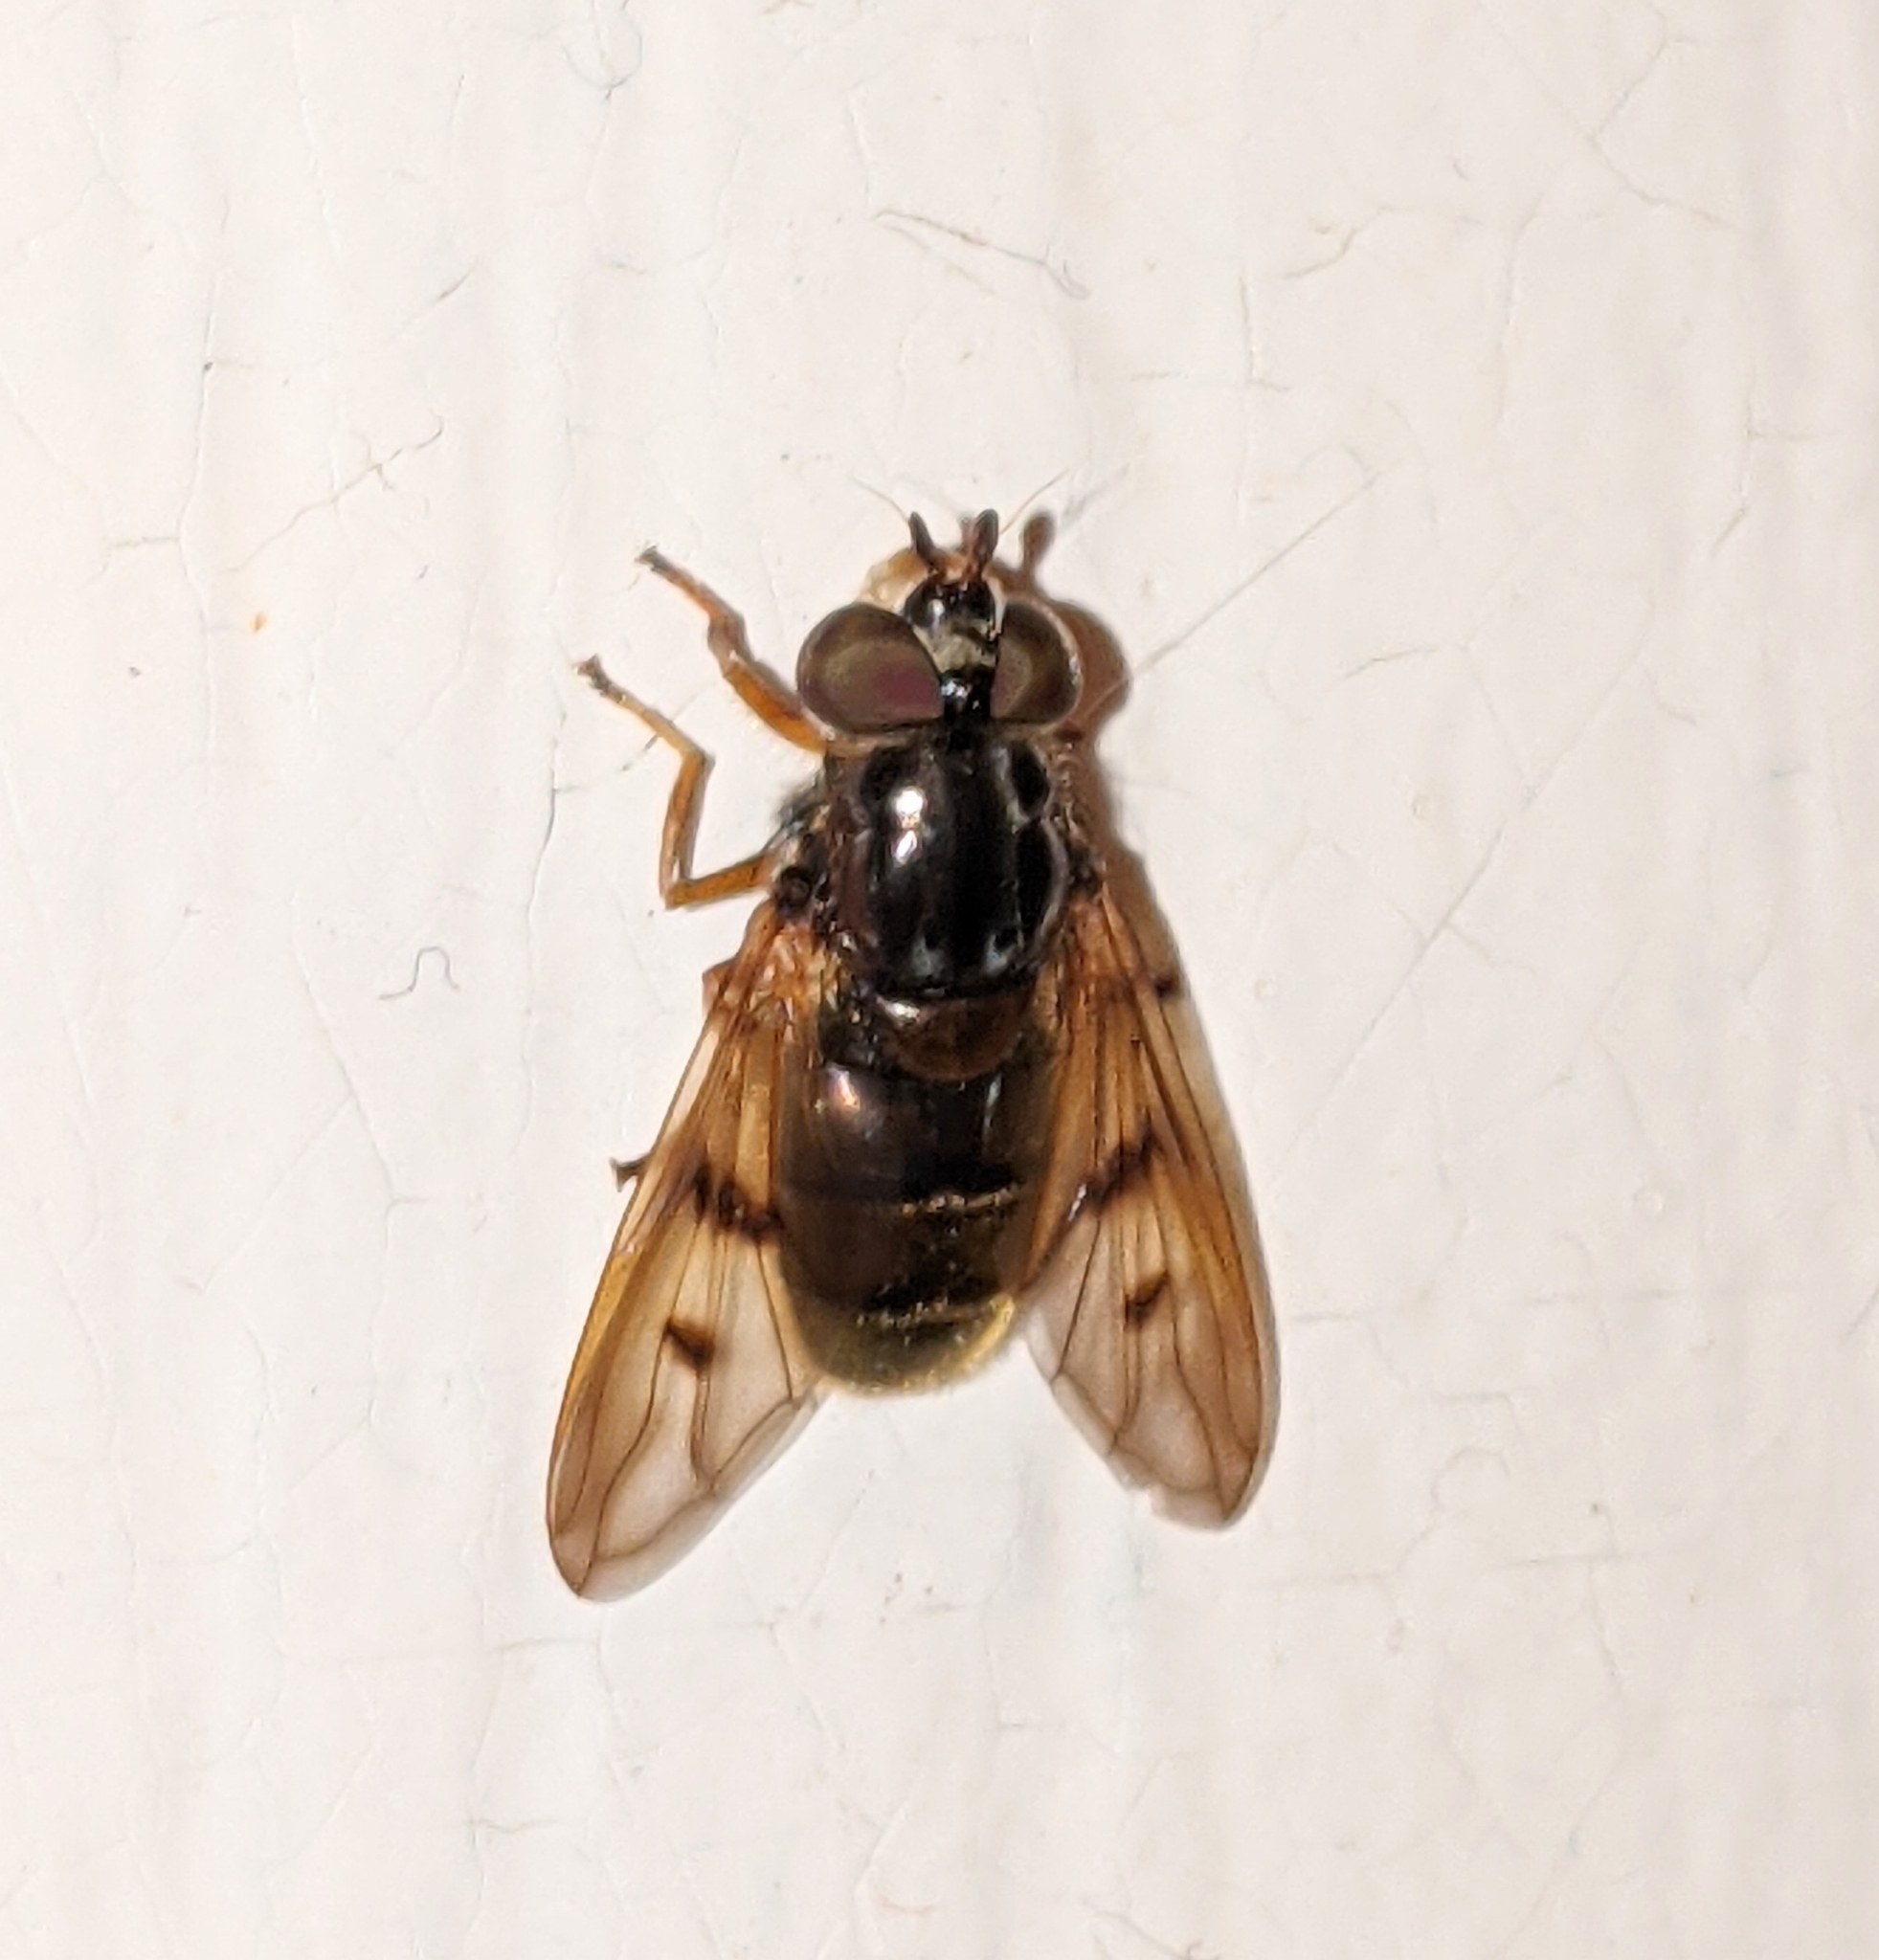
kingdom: Animalia
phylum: Arthropoda
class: Insecta
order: Diptera
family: Syrphidae
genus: Ferdinandea
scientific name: Ferdinandea buccata
